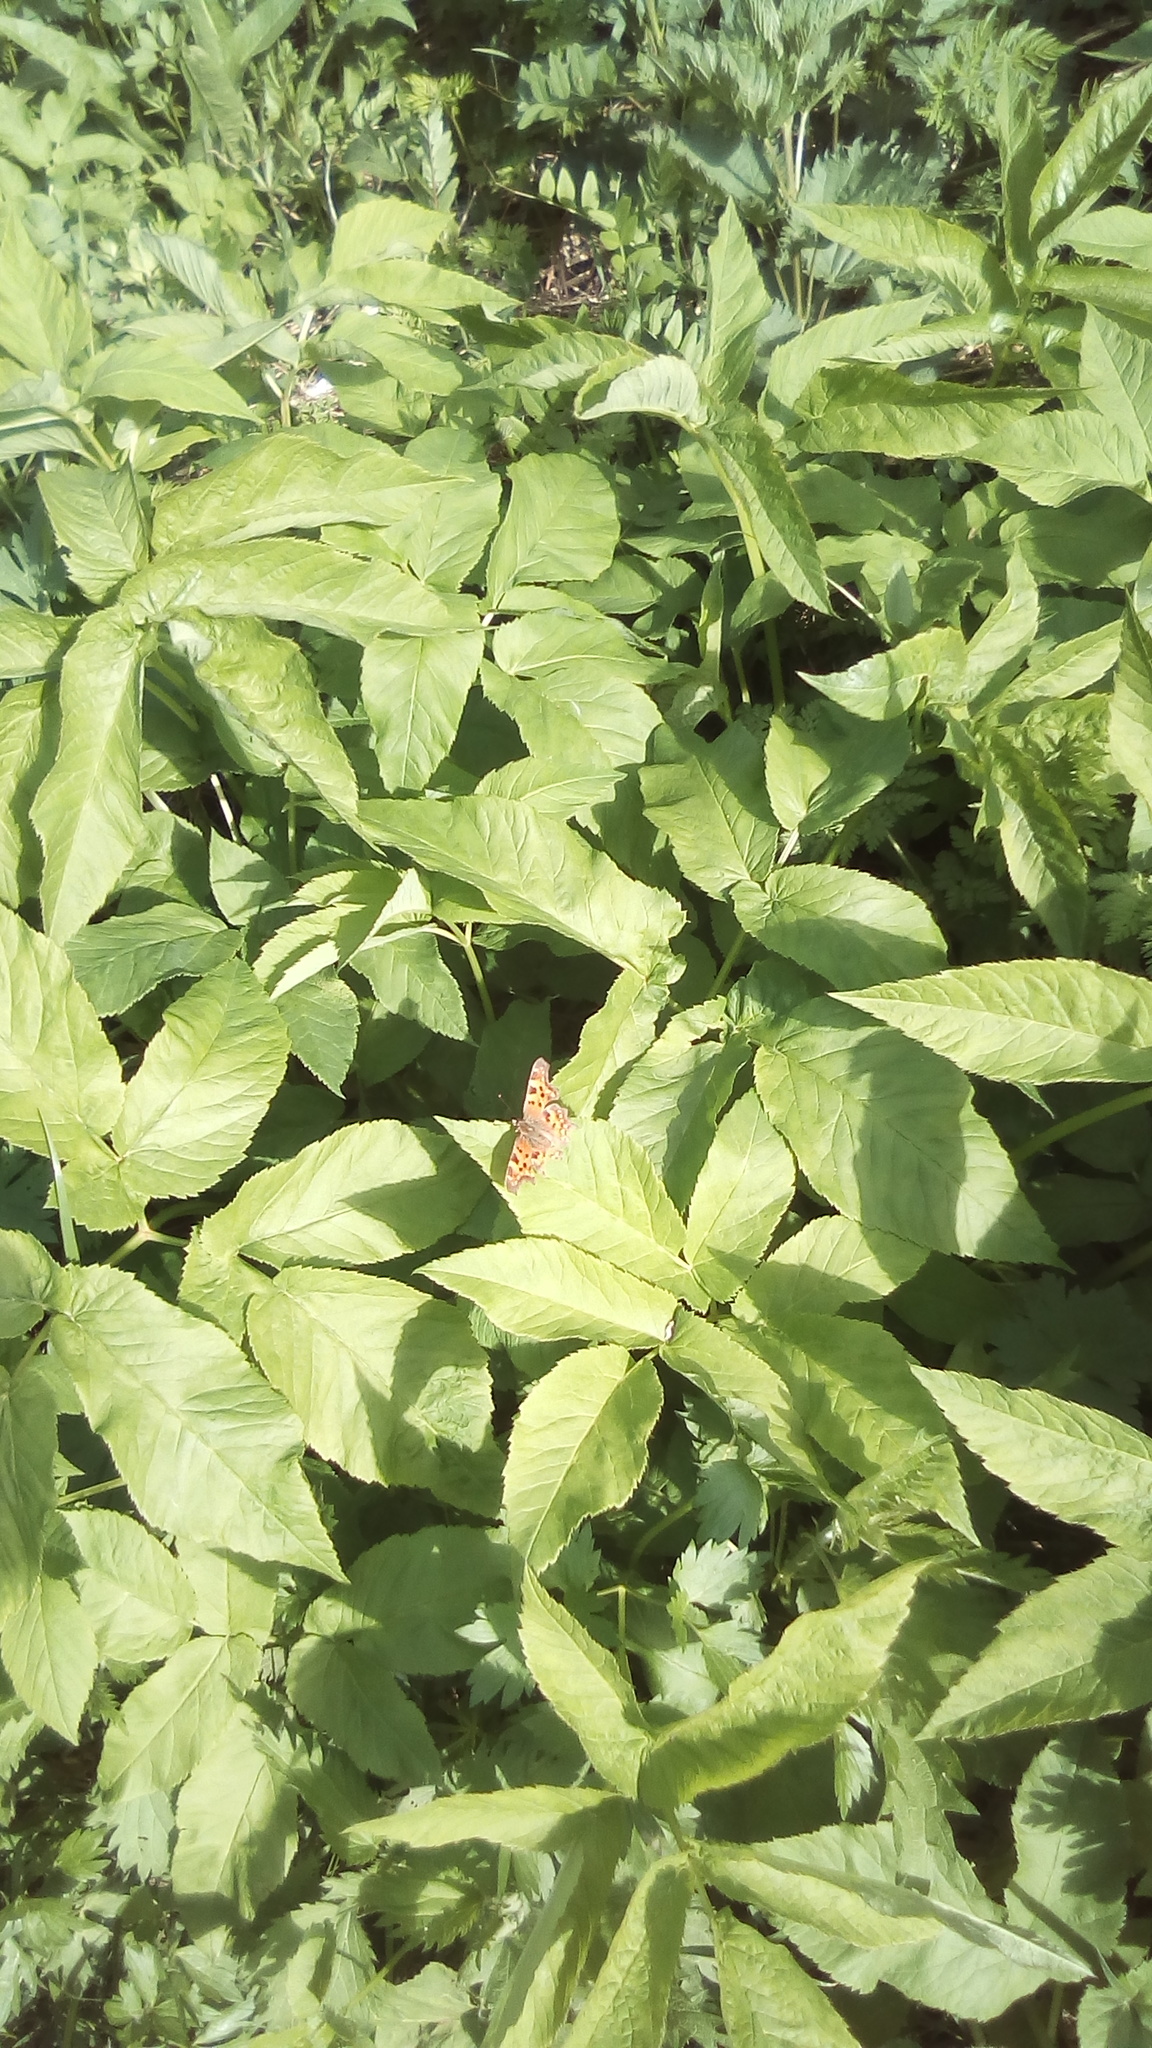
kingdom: Plantae
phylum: Tracheophyta
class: Magnoliopsida
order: Apiales
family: Apiaceae
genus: Aegopodium
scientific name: Aegopodium podagraria
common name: Ground-elder
